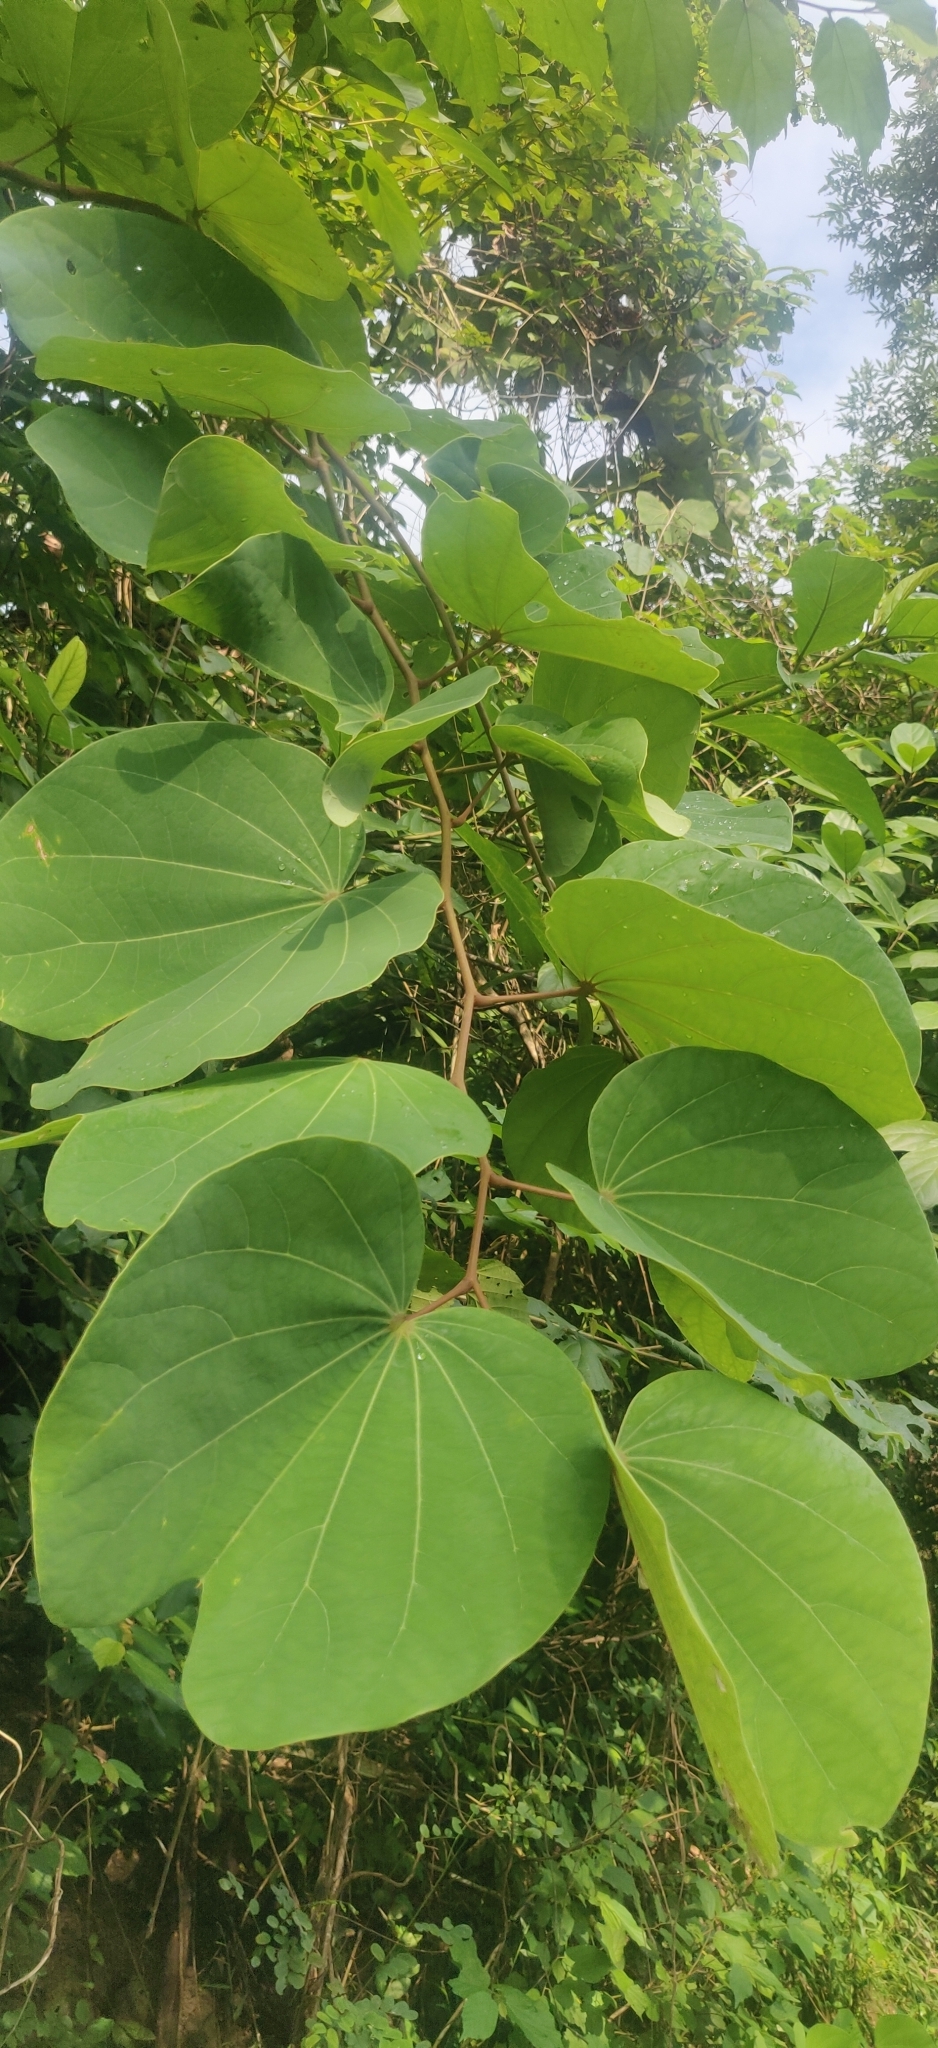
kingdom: Plantae
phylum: Tracheophyta
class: Magnoliopsida
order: Fabales
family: Fabaceae
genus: Piliostigma
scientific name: Piliostigma foveolatum
